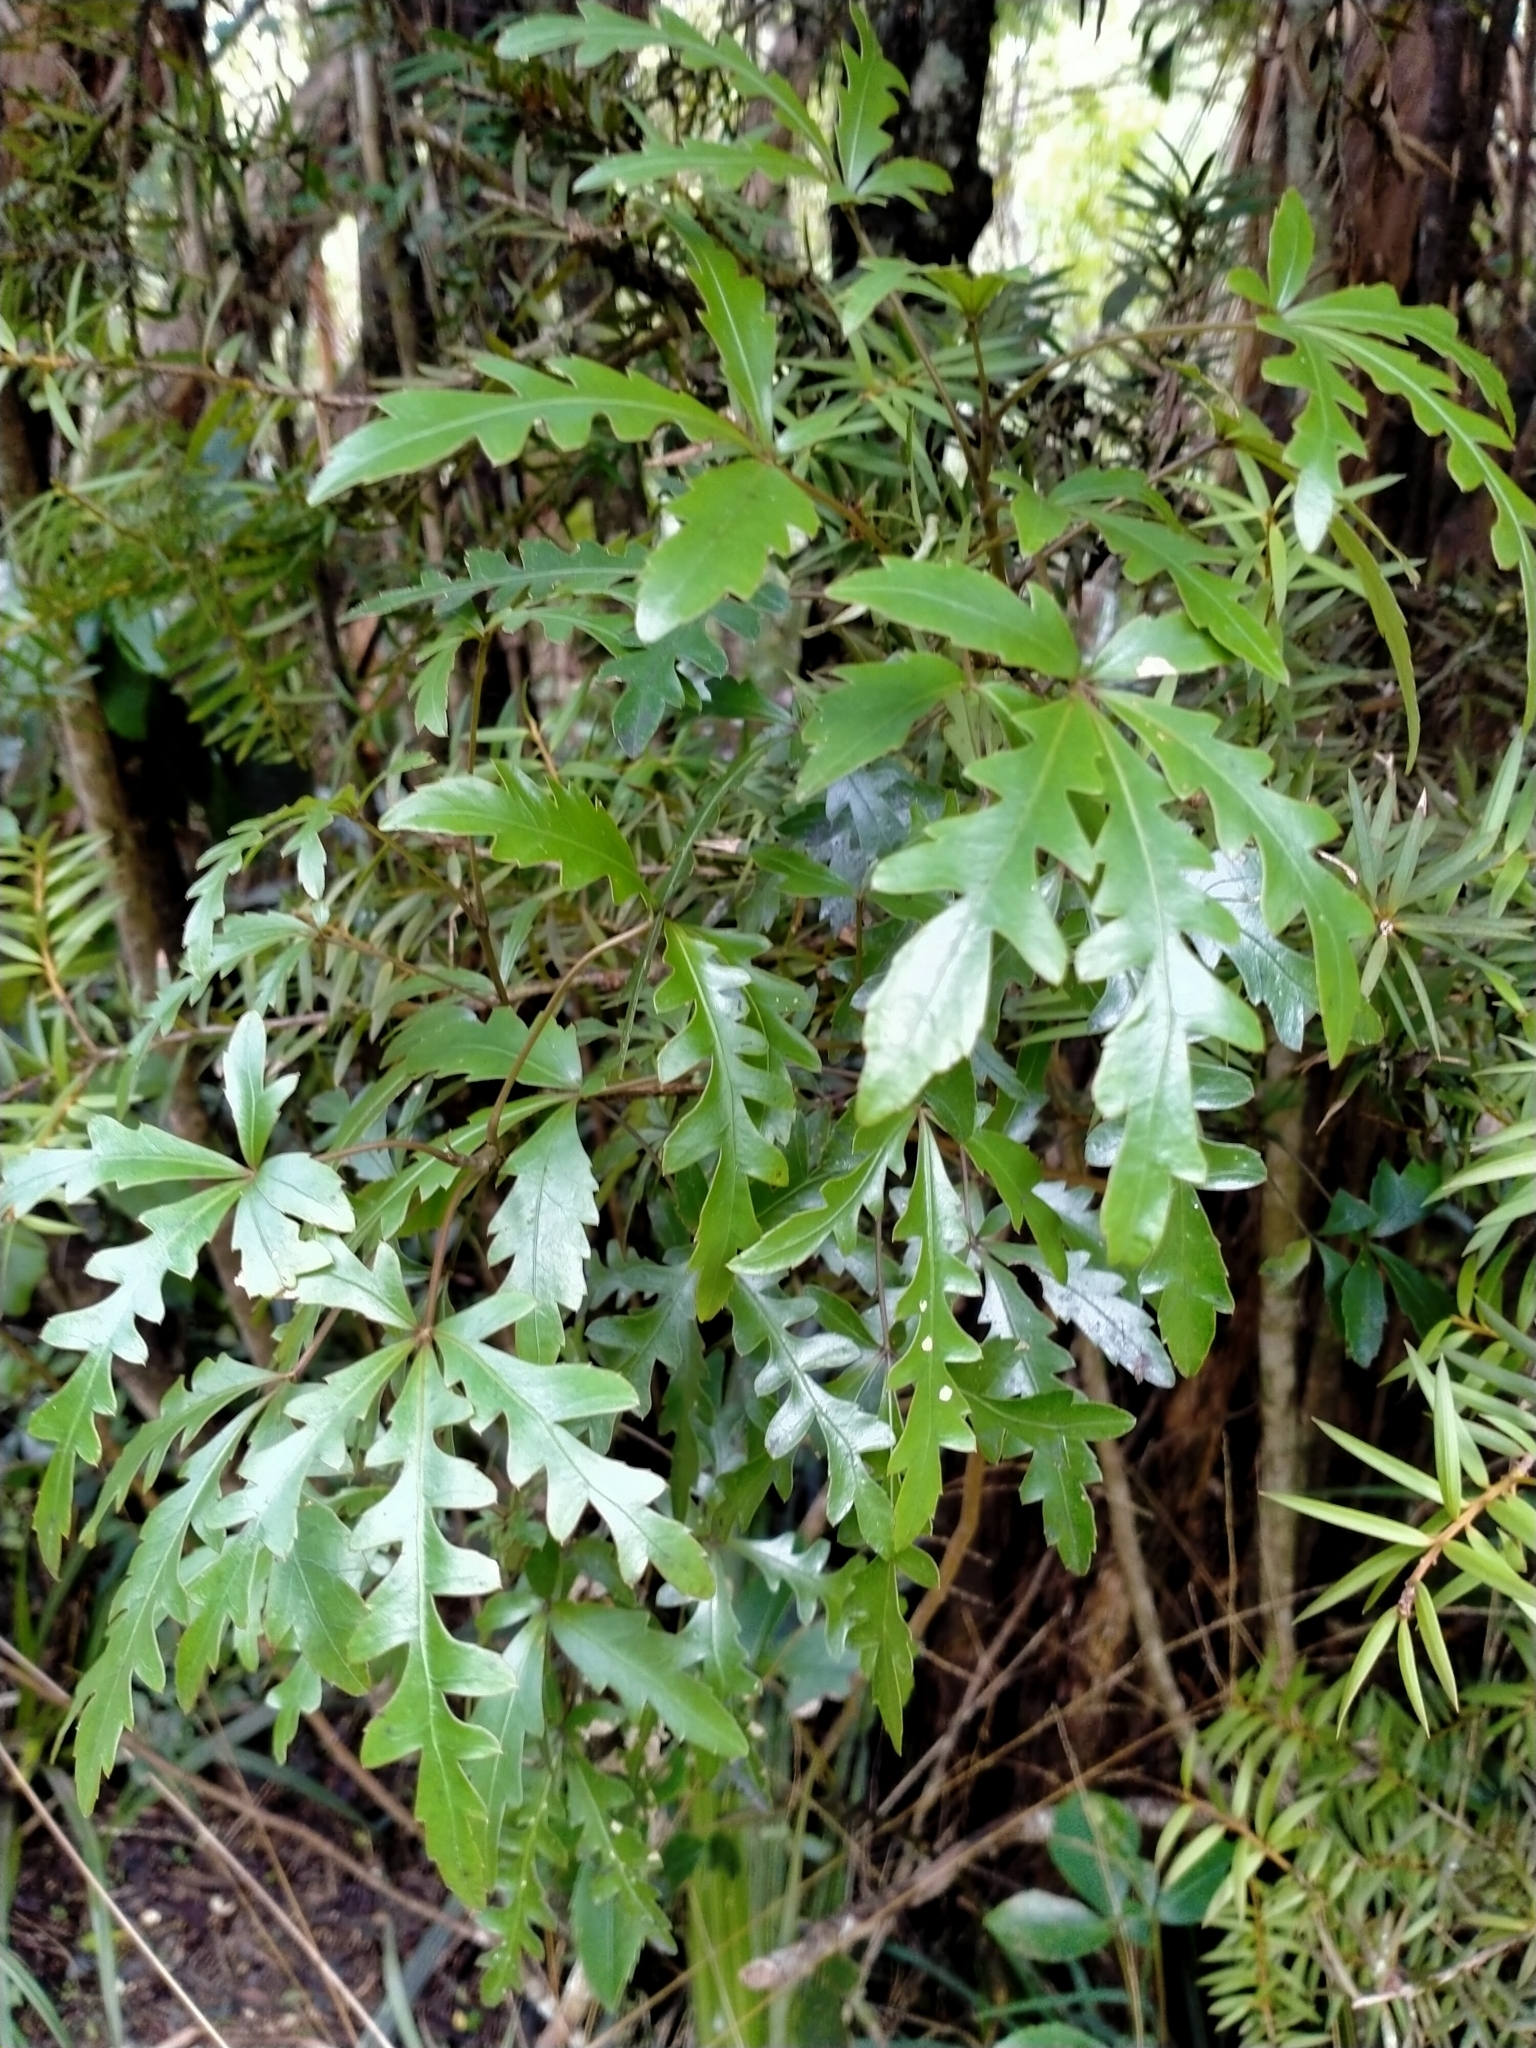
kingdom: Plantae
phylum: Tracheophyta
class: Magnoliopsida
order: Apiales
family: Araliaceae
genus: Raukaua
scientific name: Raukaua simplex
